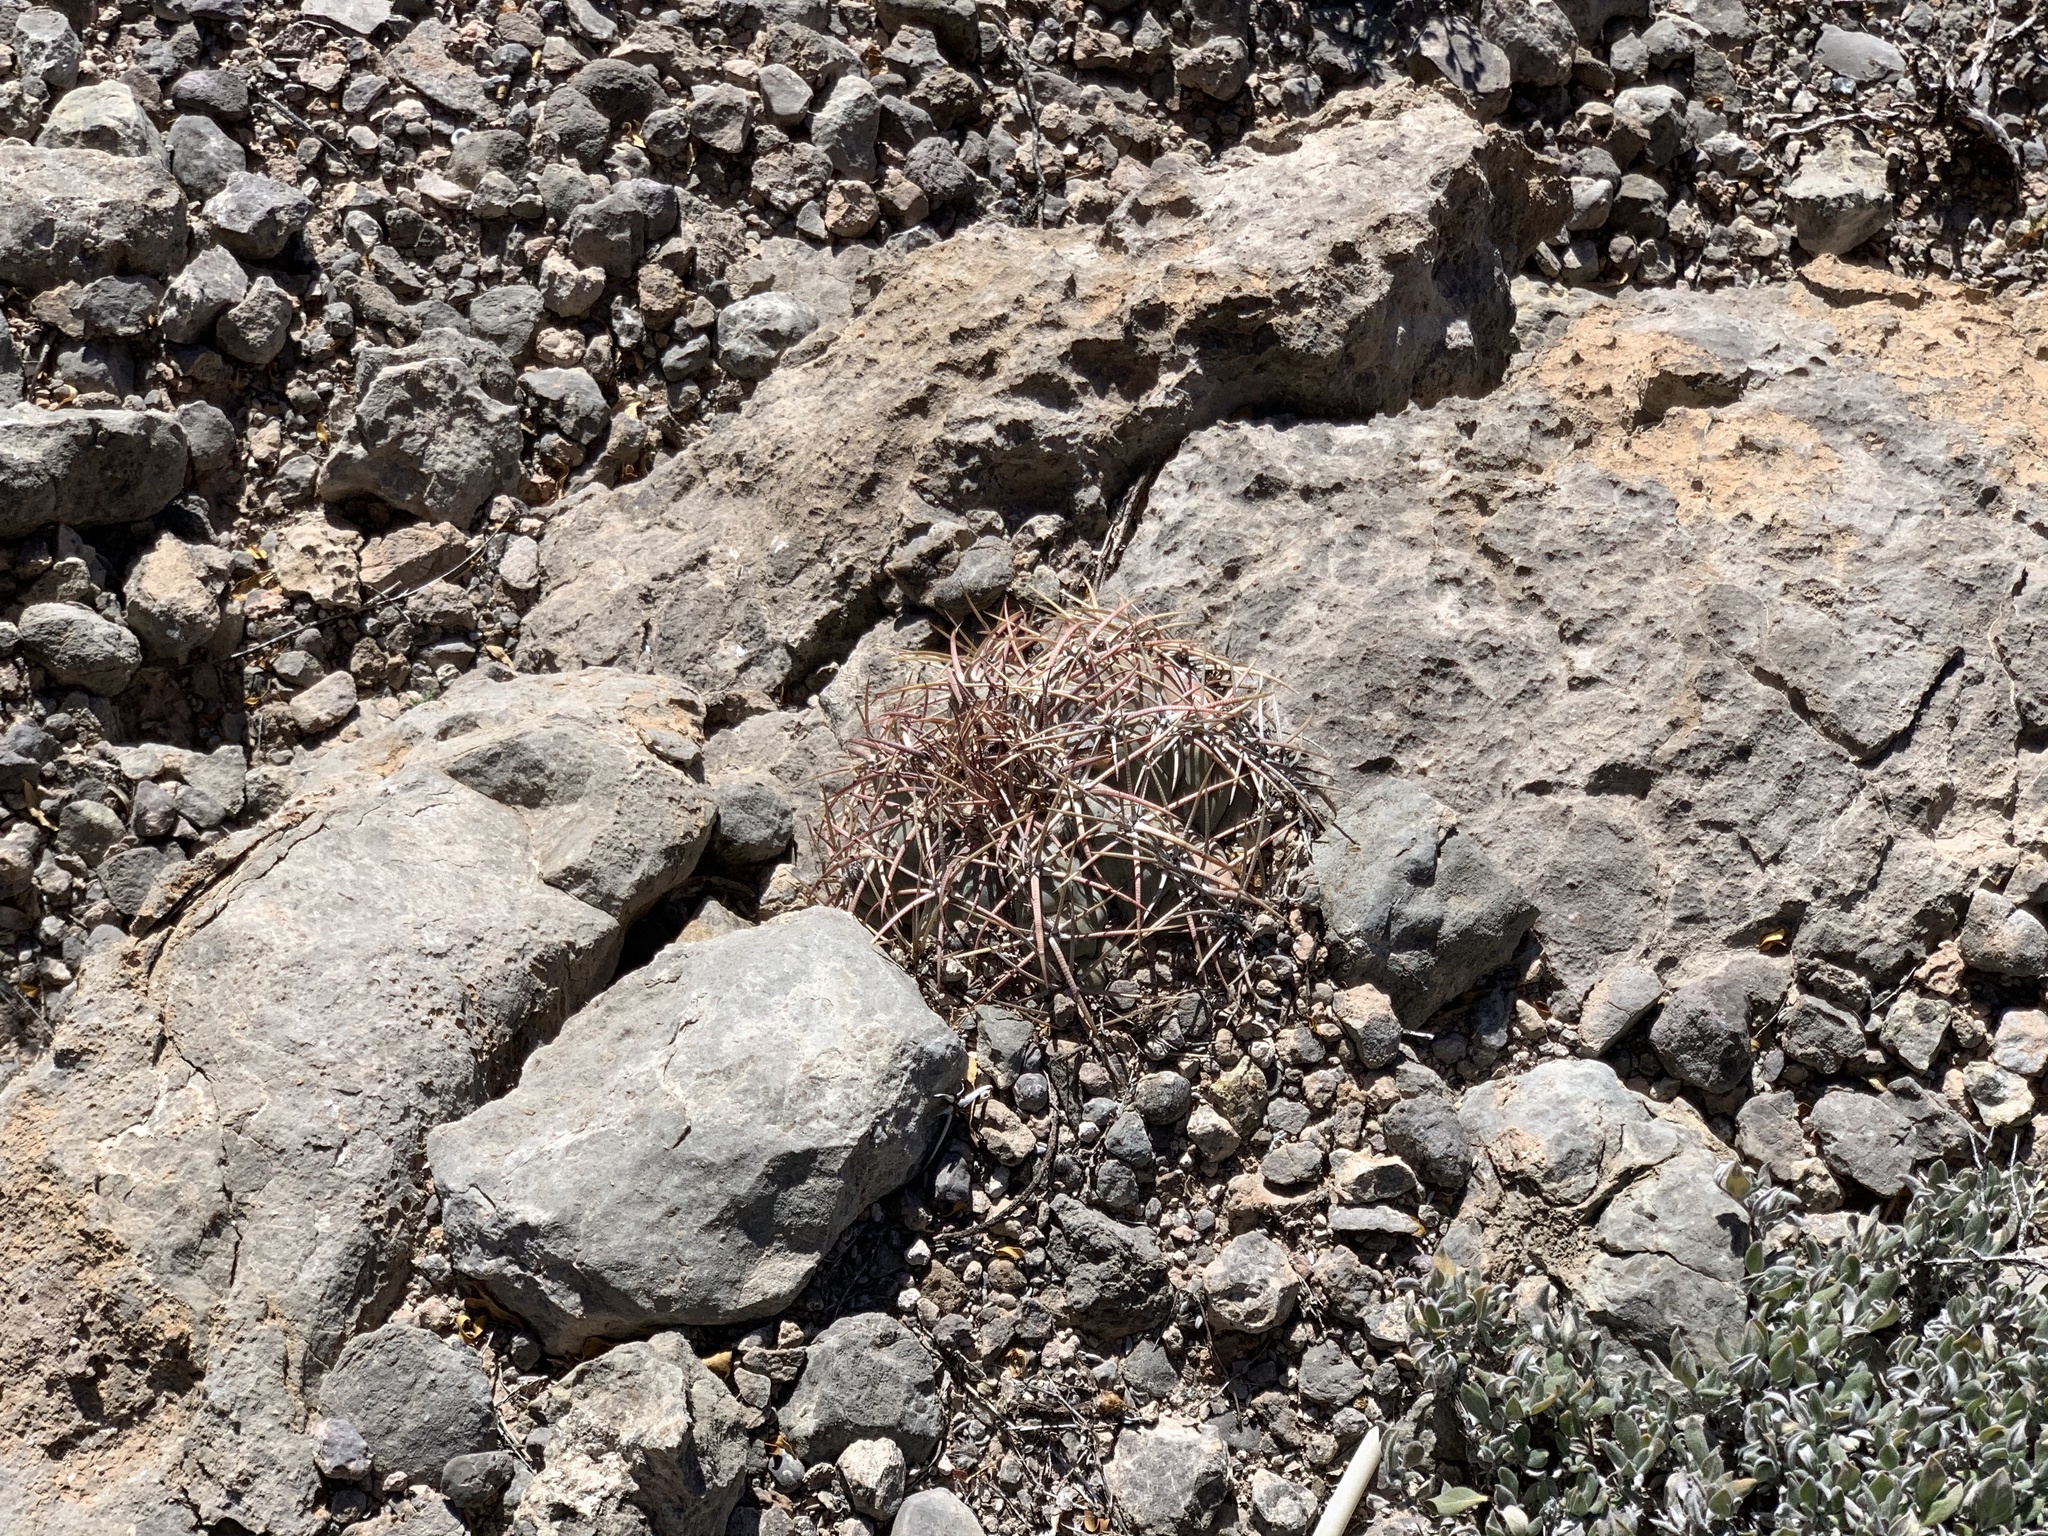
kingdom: Plantae
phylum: Tracheophyta
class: Magnoliopsida
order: Caryophyllales
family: Cactaceae
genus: Echinocactus
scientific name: Echinocactus horizonthalonius
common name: Devilshead
